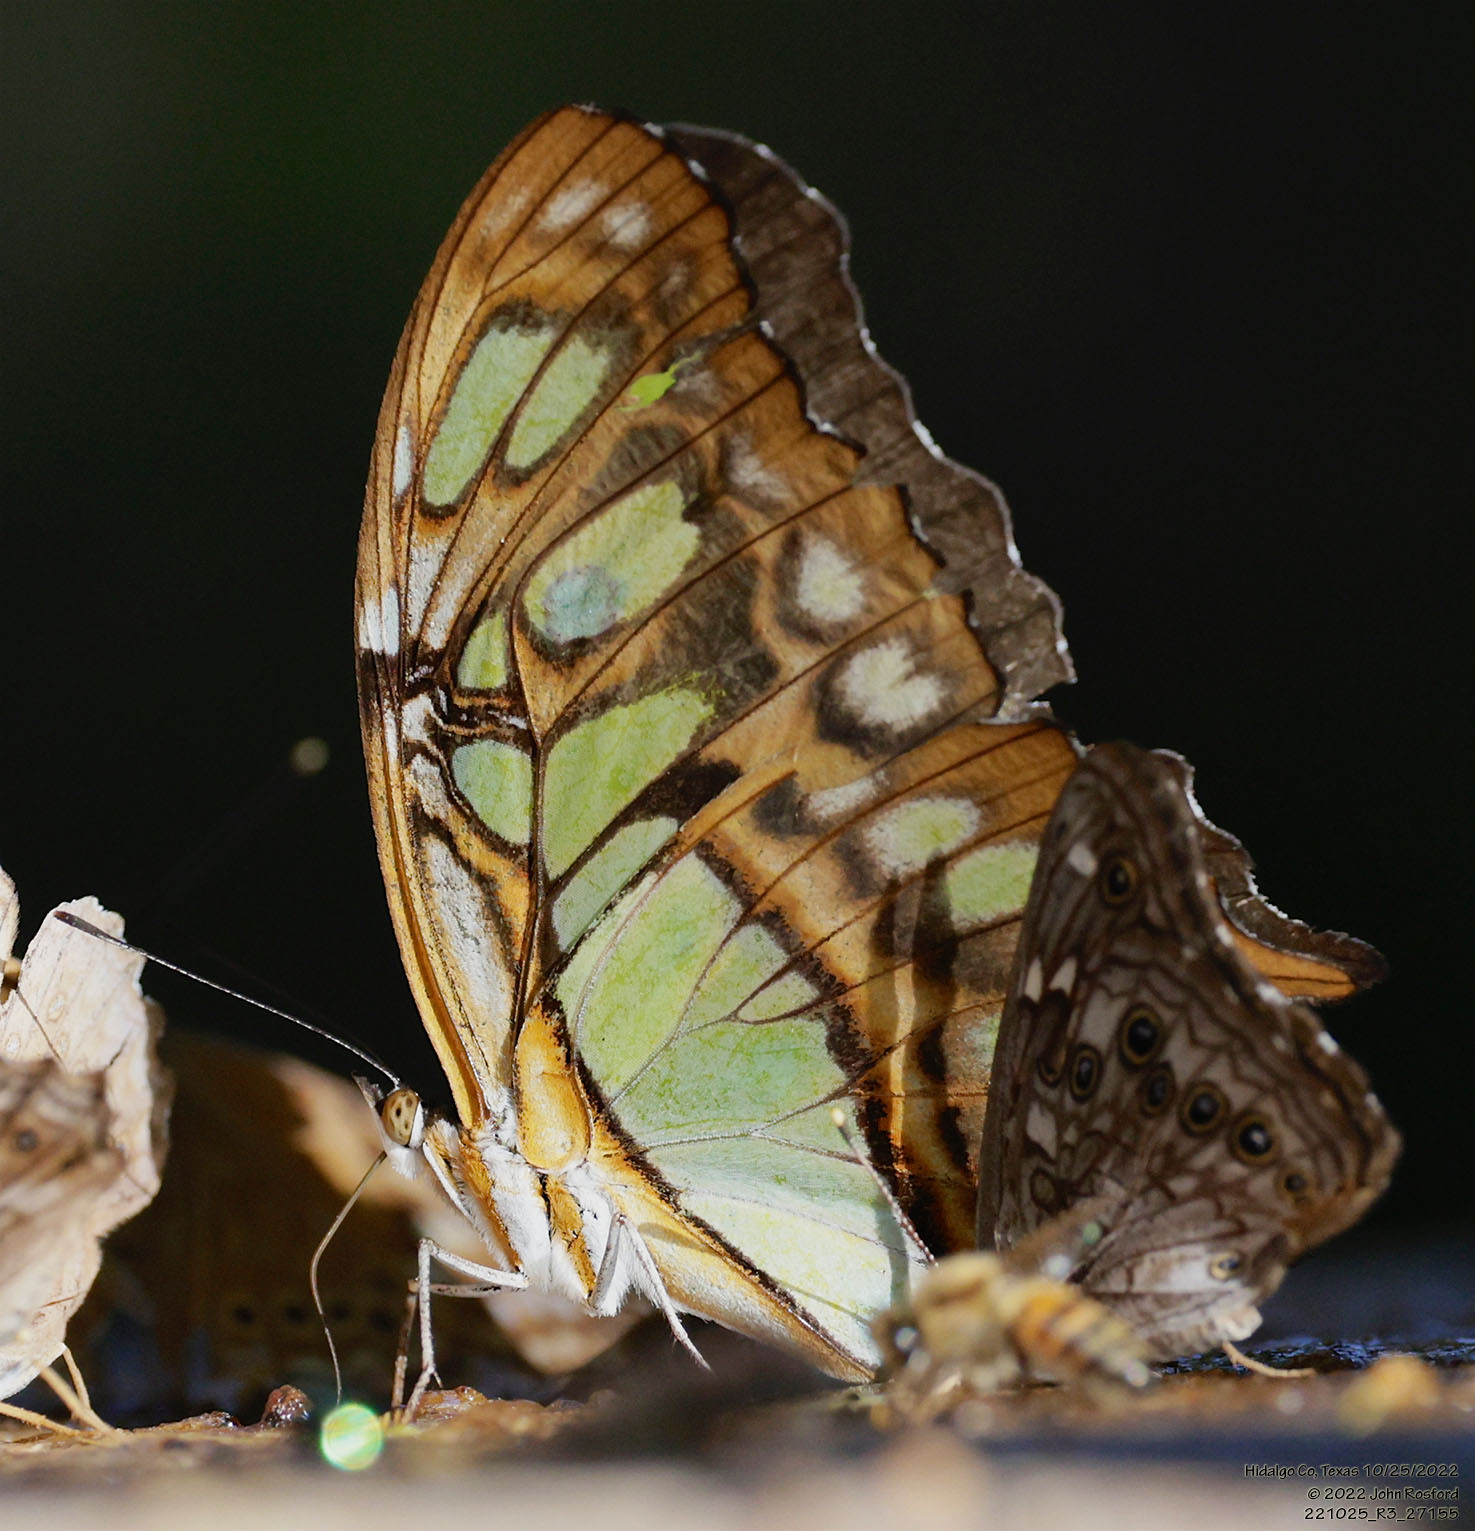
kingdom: Animalia
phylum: Arthropoda
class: Insecta
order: Lepidoptera
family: Nymphalidae
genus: Siproeta
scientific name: Siproeta stelenes
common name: Malachite
